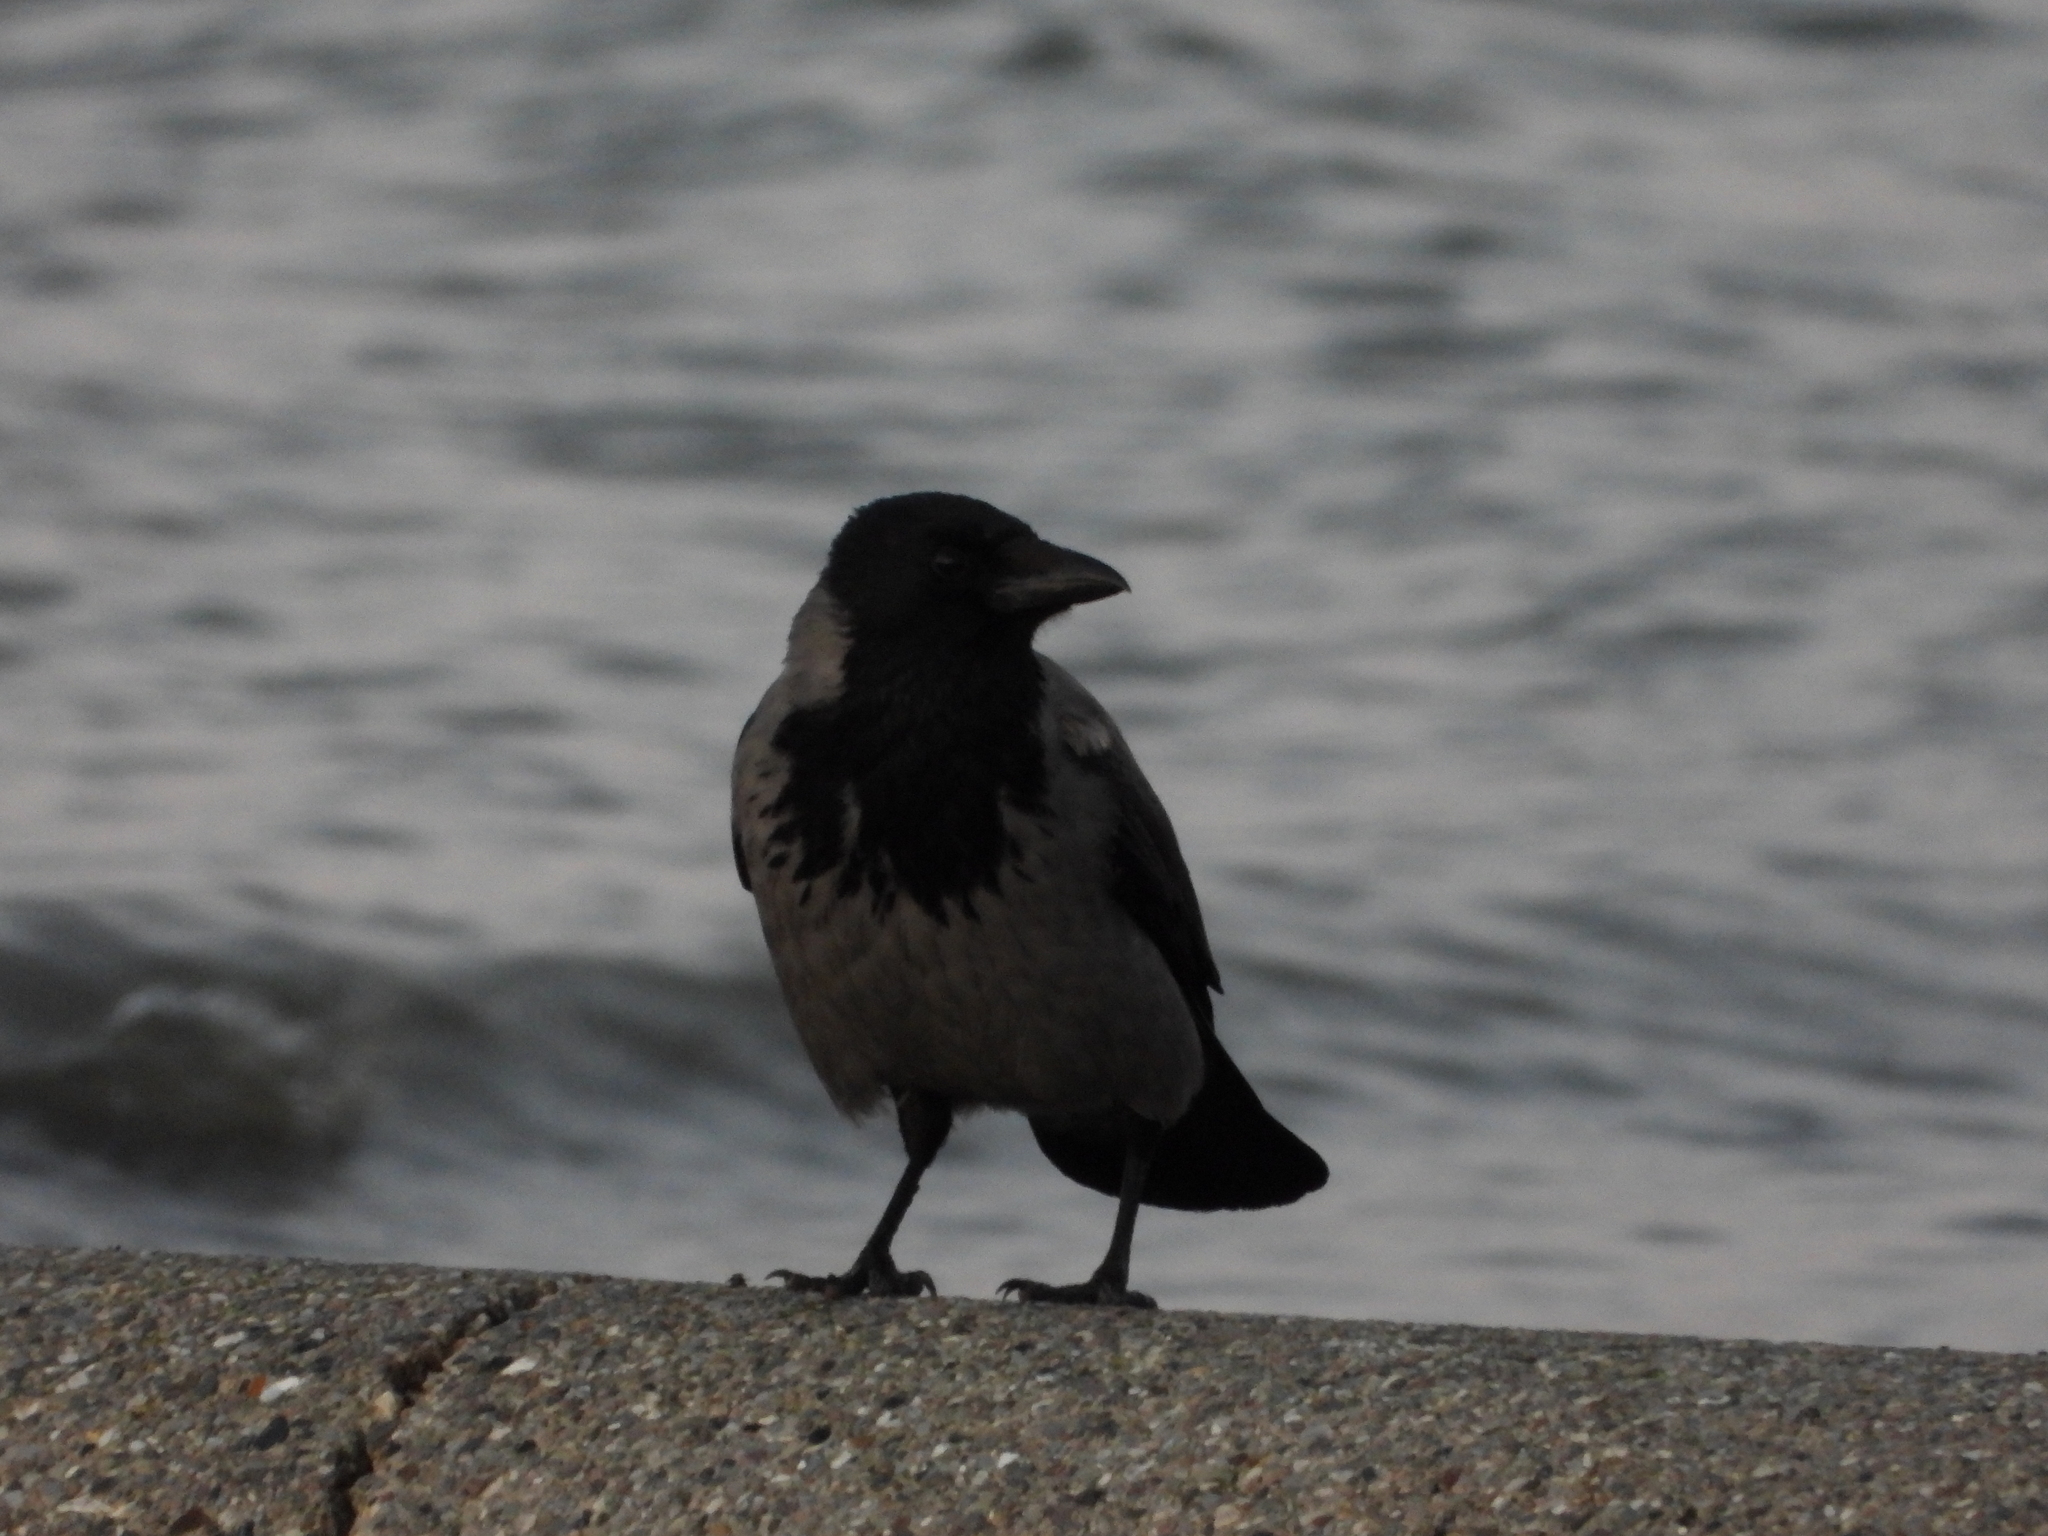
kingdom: Animalia
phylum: Chordata
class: Aves
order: Passeriformes
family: Corvidae
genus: Corvus
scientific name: Corvus cornix
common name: Hooded crow
